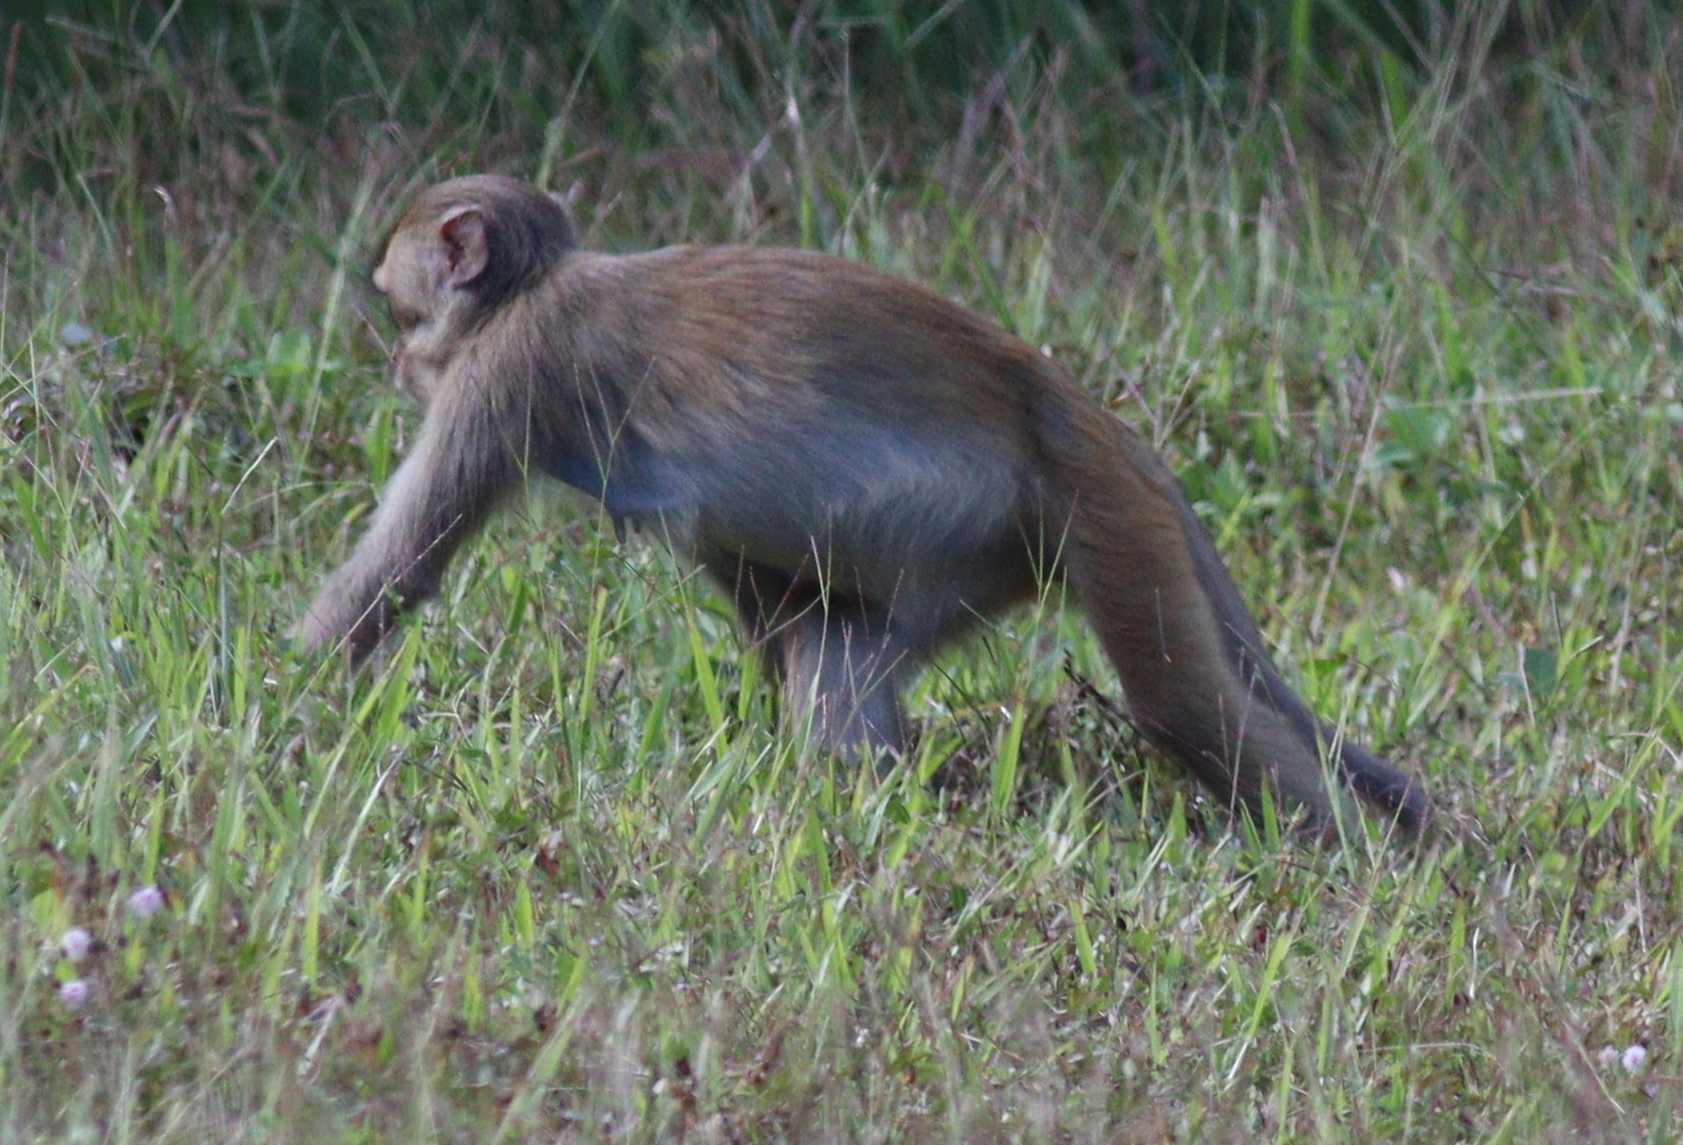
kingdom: Animalia
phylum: Chordata
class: Mammalia
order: Primates
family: Cercopithecidae
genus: Macaca
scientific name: Macaca mulatta
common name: Rhesus monkey
